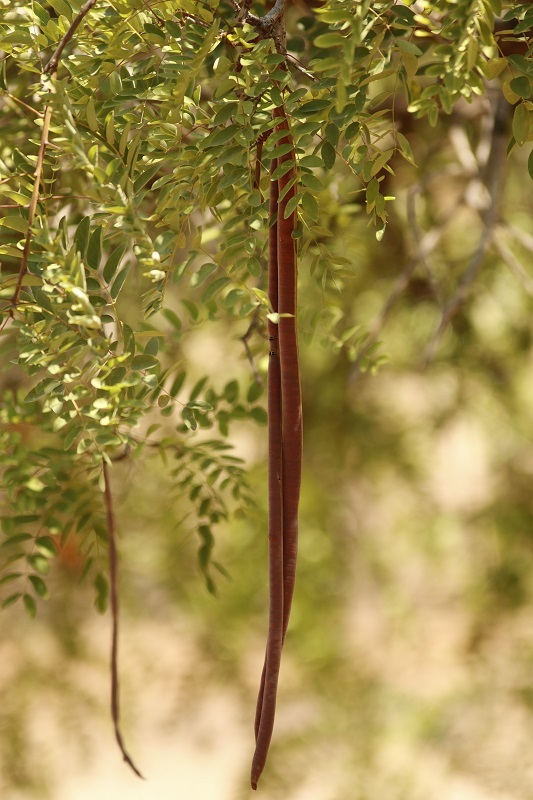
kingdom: Plantae
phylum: Tracheophyta
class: Magnoliopsida
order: Fabales
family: Fabaceae
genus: Cassia
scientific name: Cassia abbreviata
